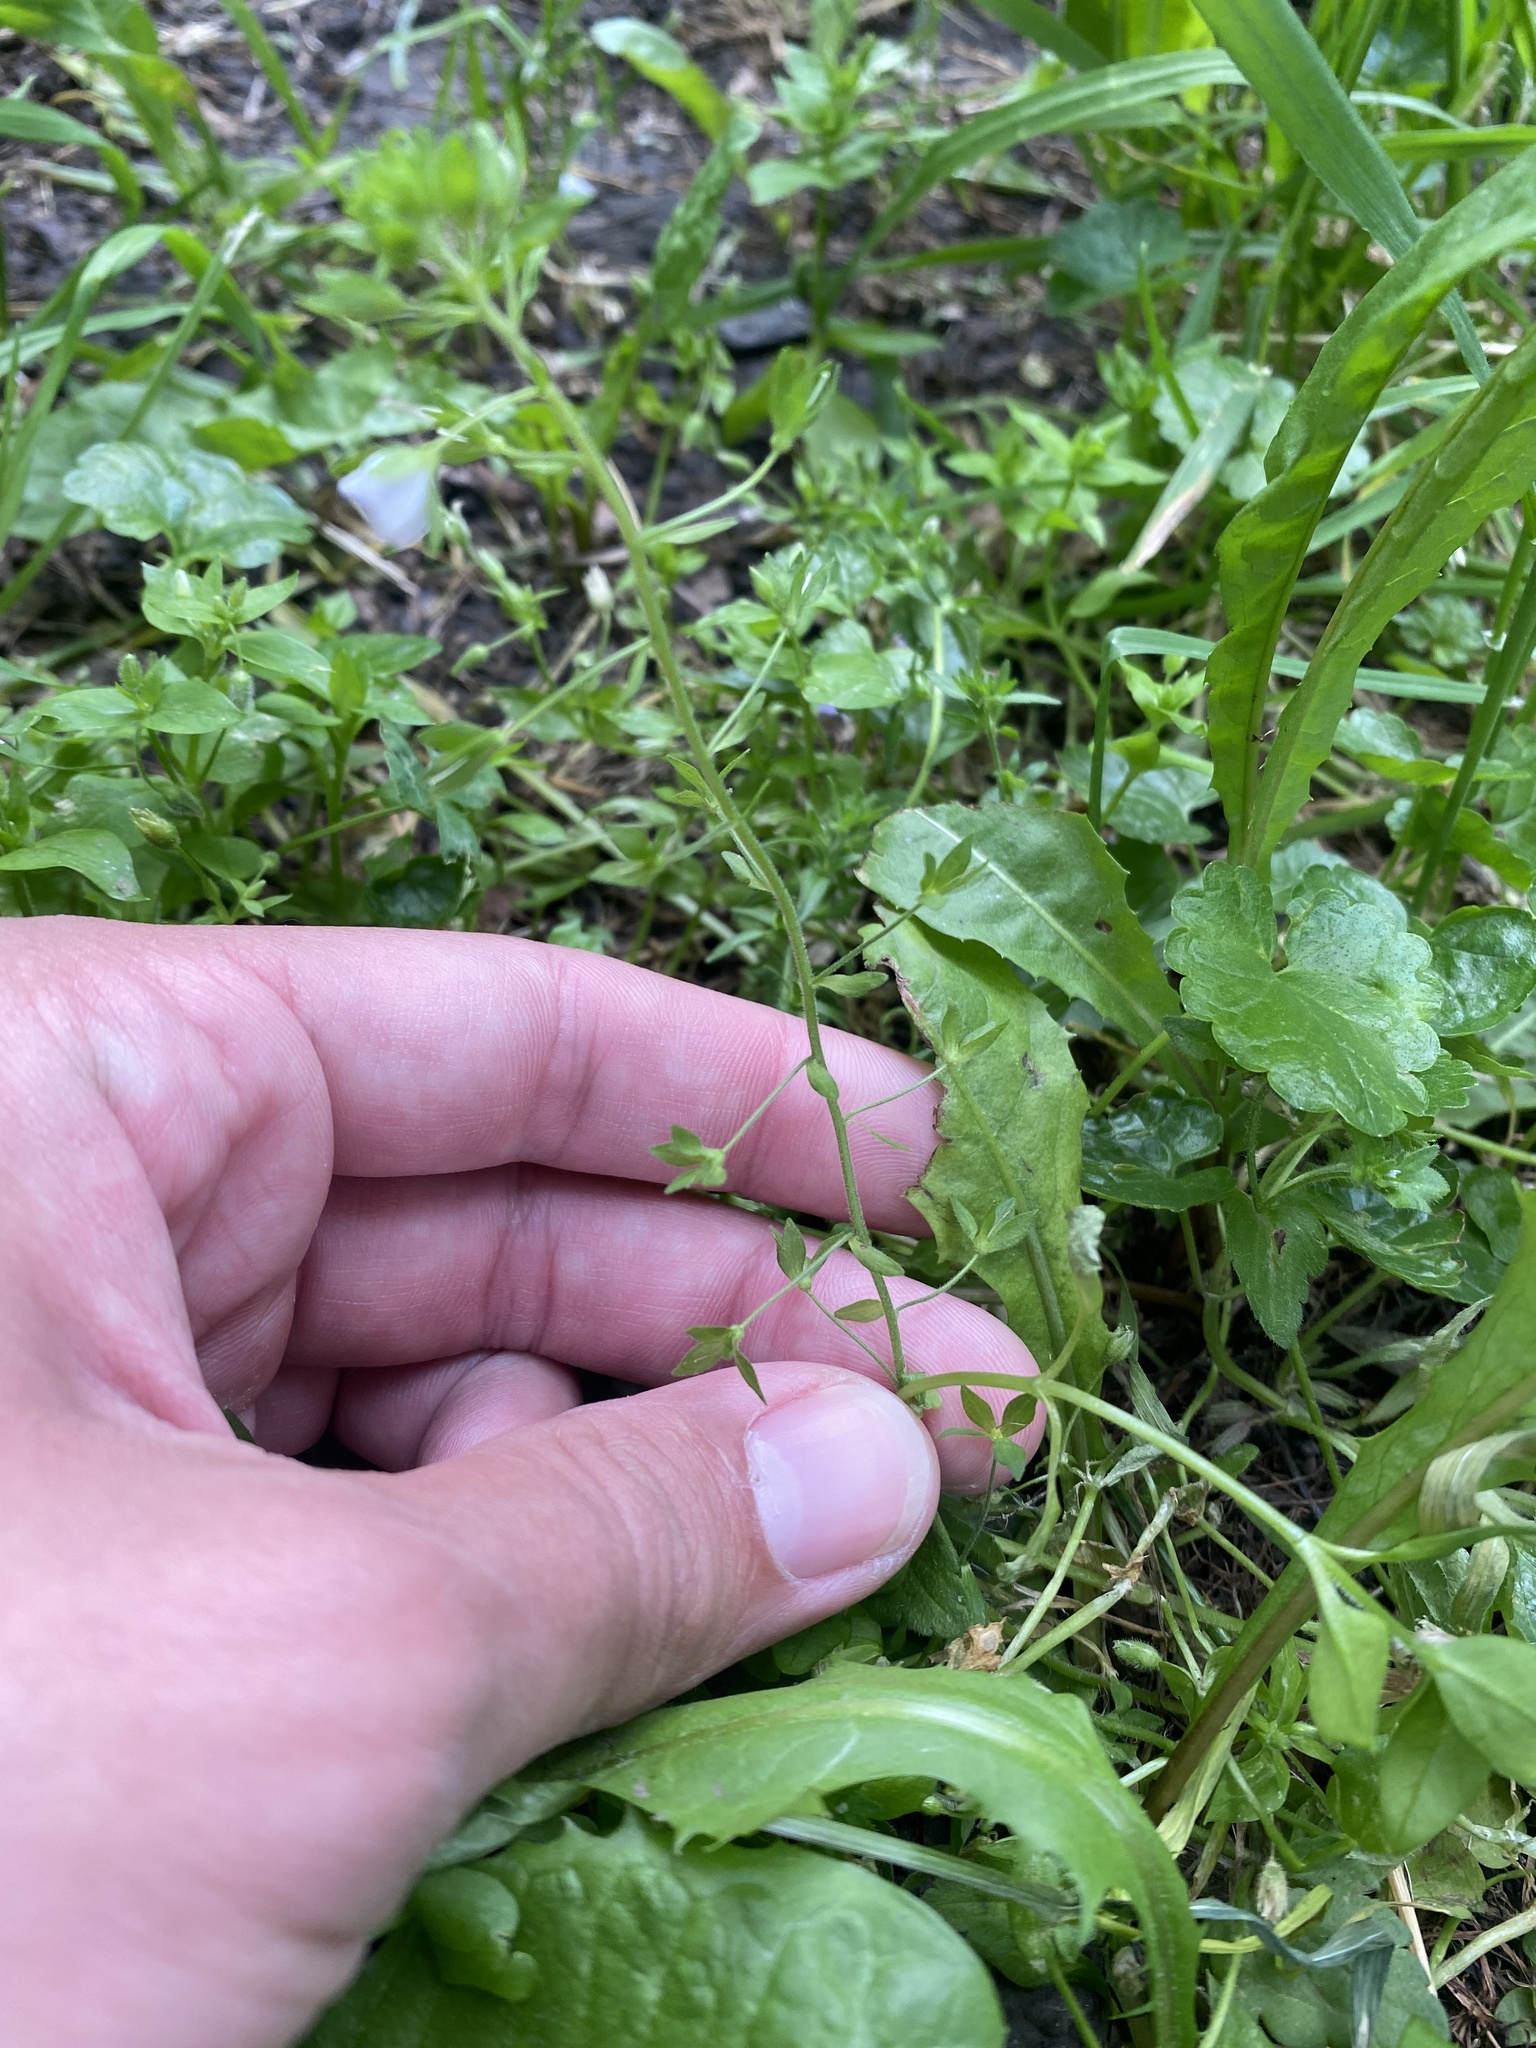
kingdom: Plantae
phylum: Tracheophyta
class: Magnoliopsida
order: Lamiales
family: Plantaginaceae
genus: Veronica
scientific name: Veronica serpyllifolia
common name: Thyme-leaved speedwell
